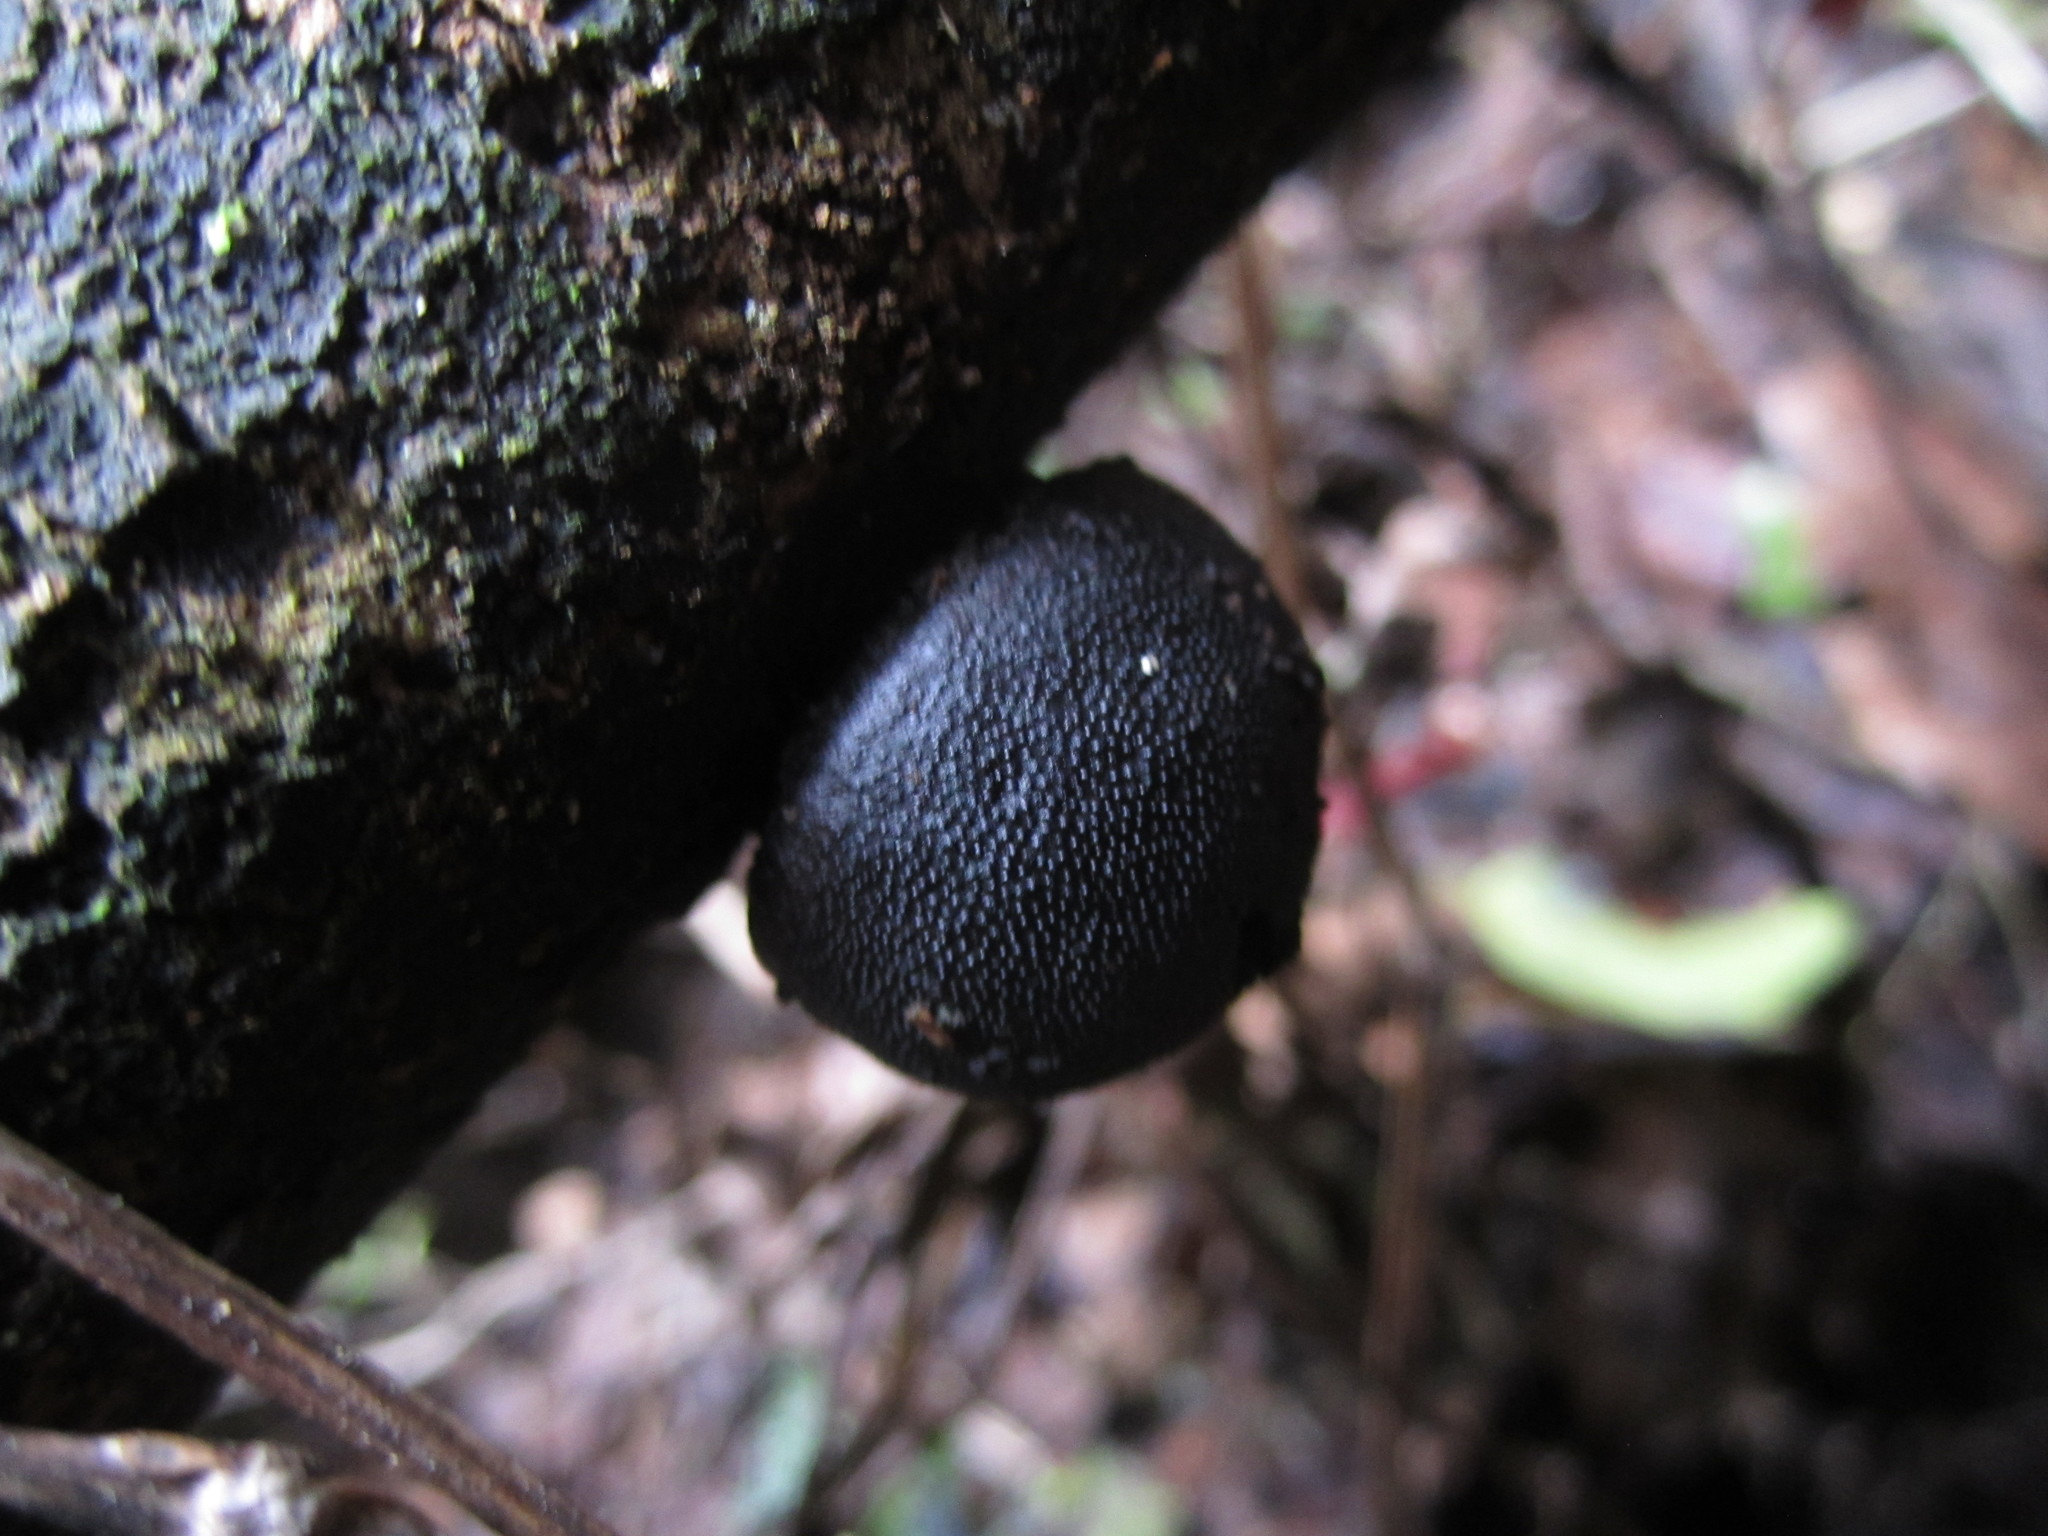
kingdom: Fungi
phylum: Ascomycota
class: Sordariomycetes
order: Xylariales
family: Hypoxylaceae
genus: Daldinia
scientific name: Daldinia
